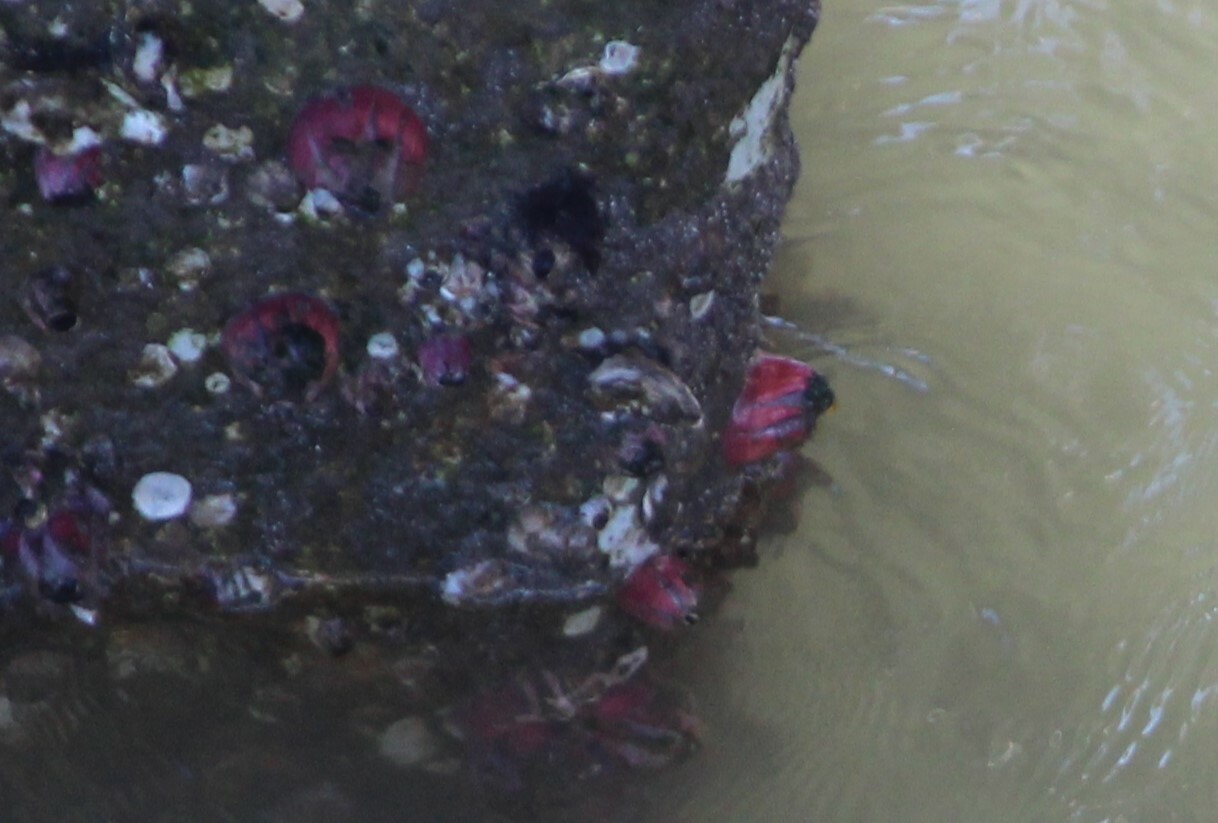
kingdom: Animalia
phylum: Arthropoda
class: Maxillopoda
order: Sessilia
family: Balanidae
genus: Megabalanus
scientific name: Megabalanus tintinnabulum
